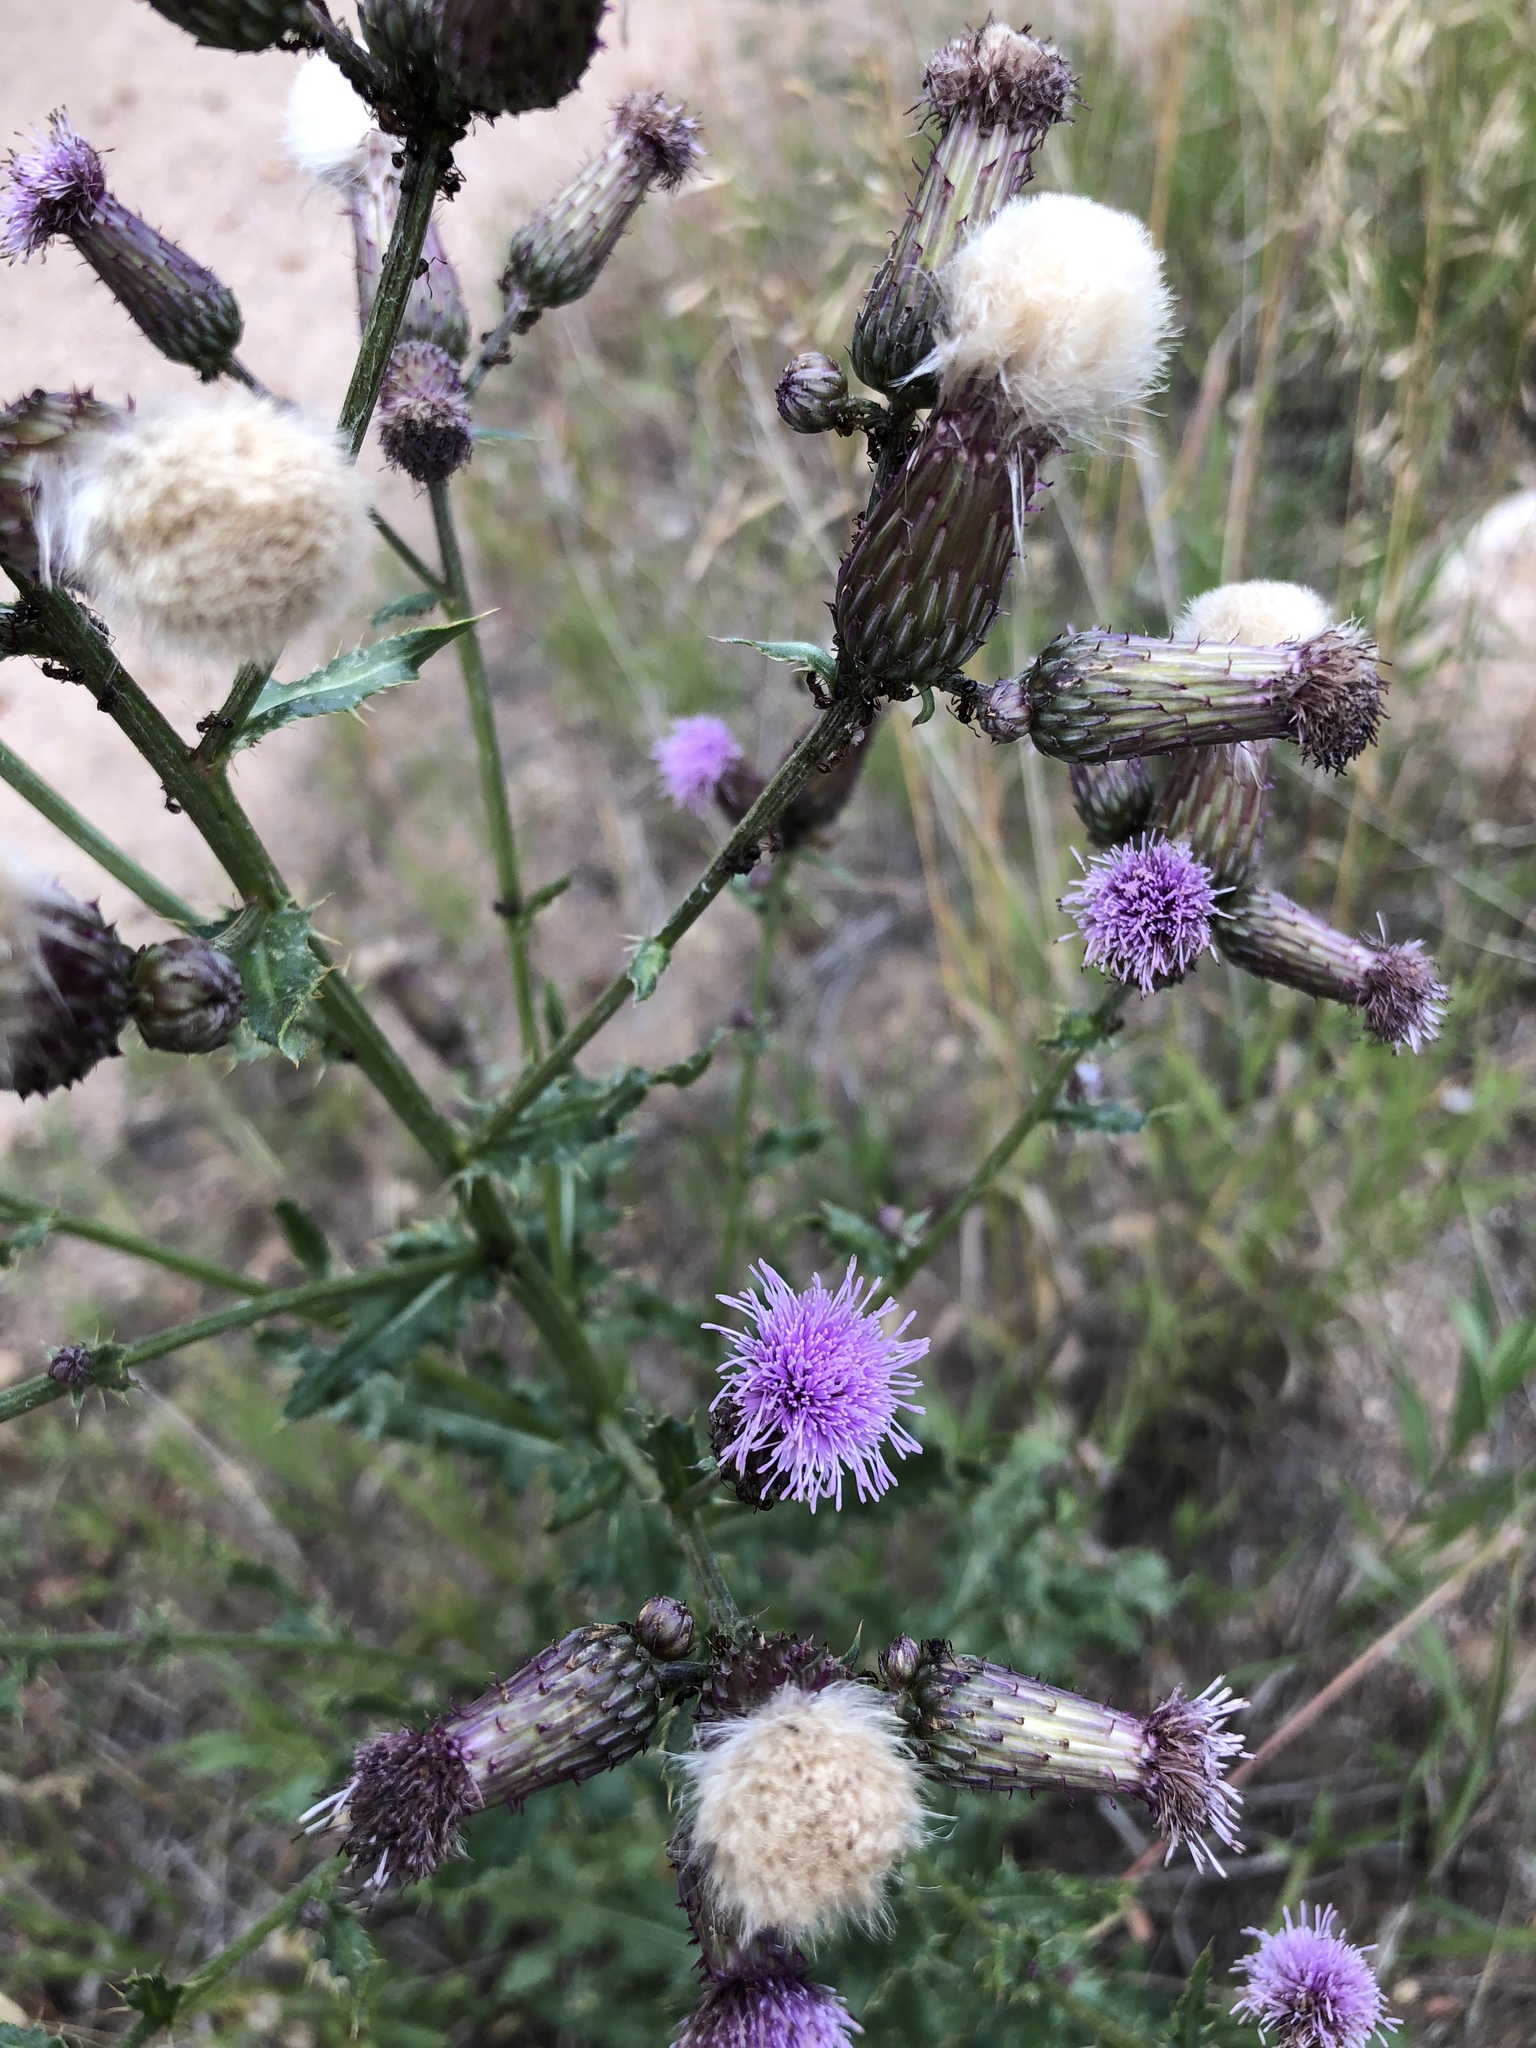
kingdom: Plantae
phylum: Tracheophyta
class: Magnoliopsida
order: Asterales
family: Asteraceae
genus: Cirsium
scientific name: Cirsium arvense
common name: Creeping thistle
